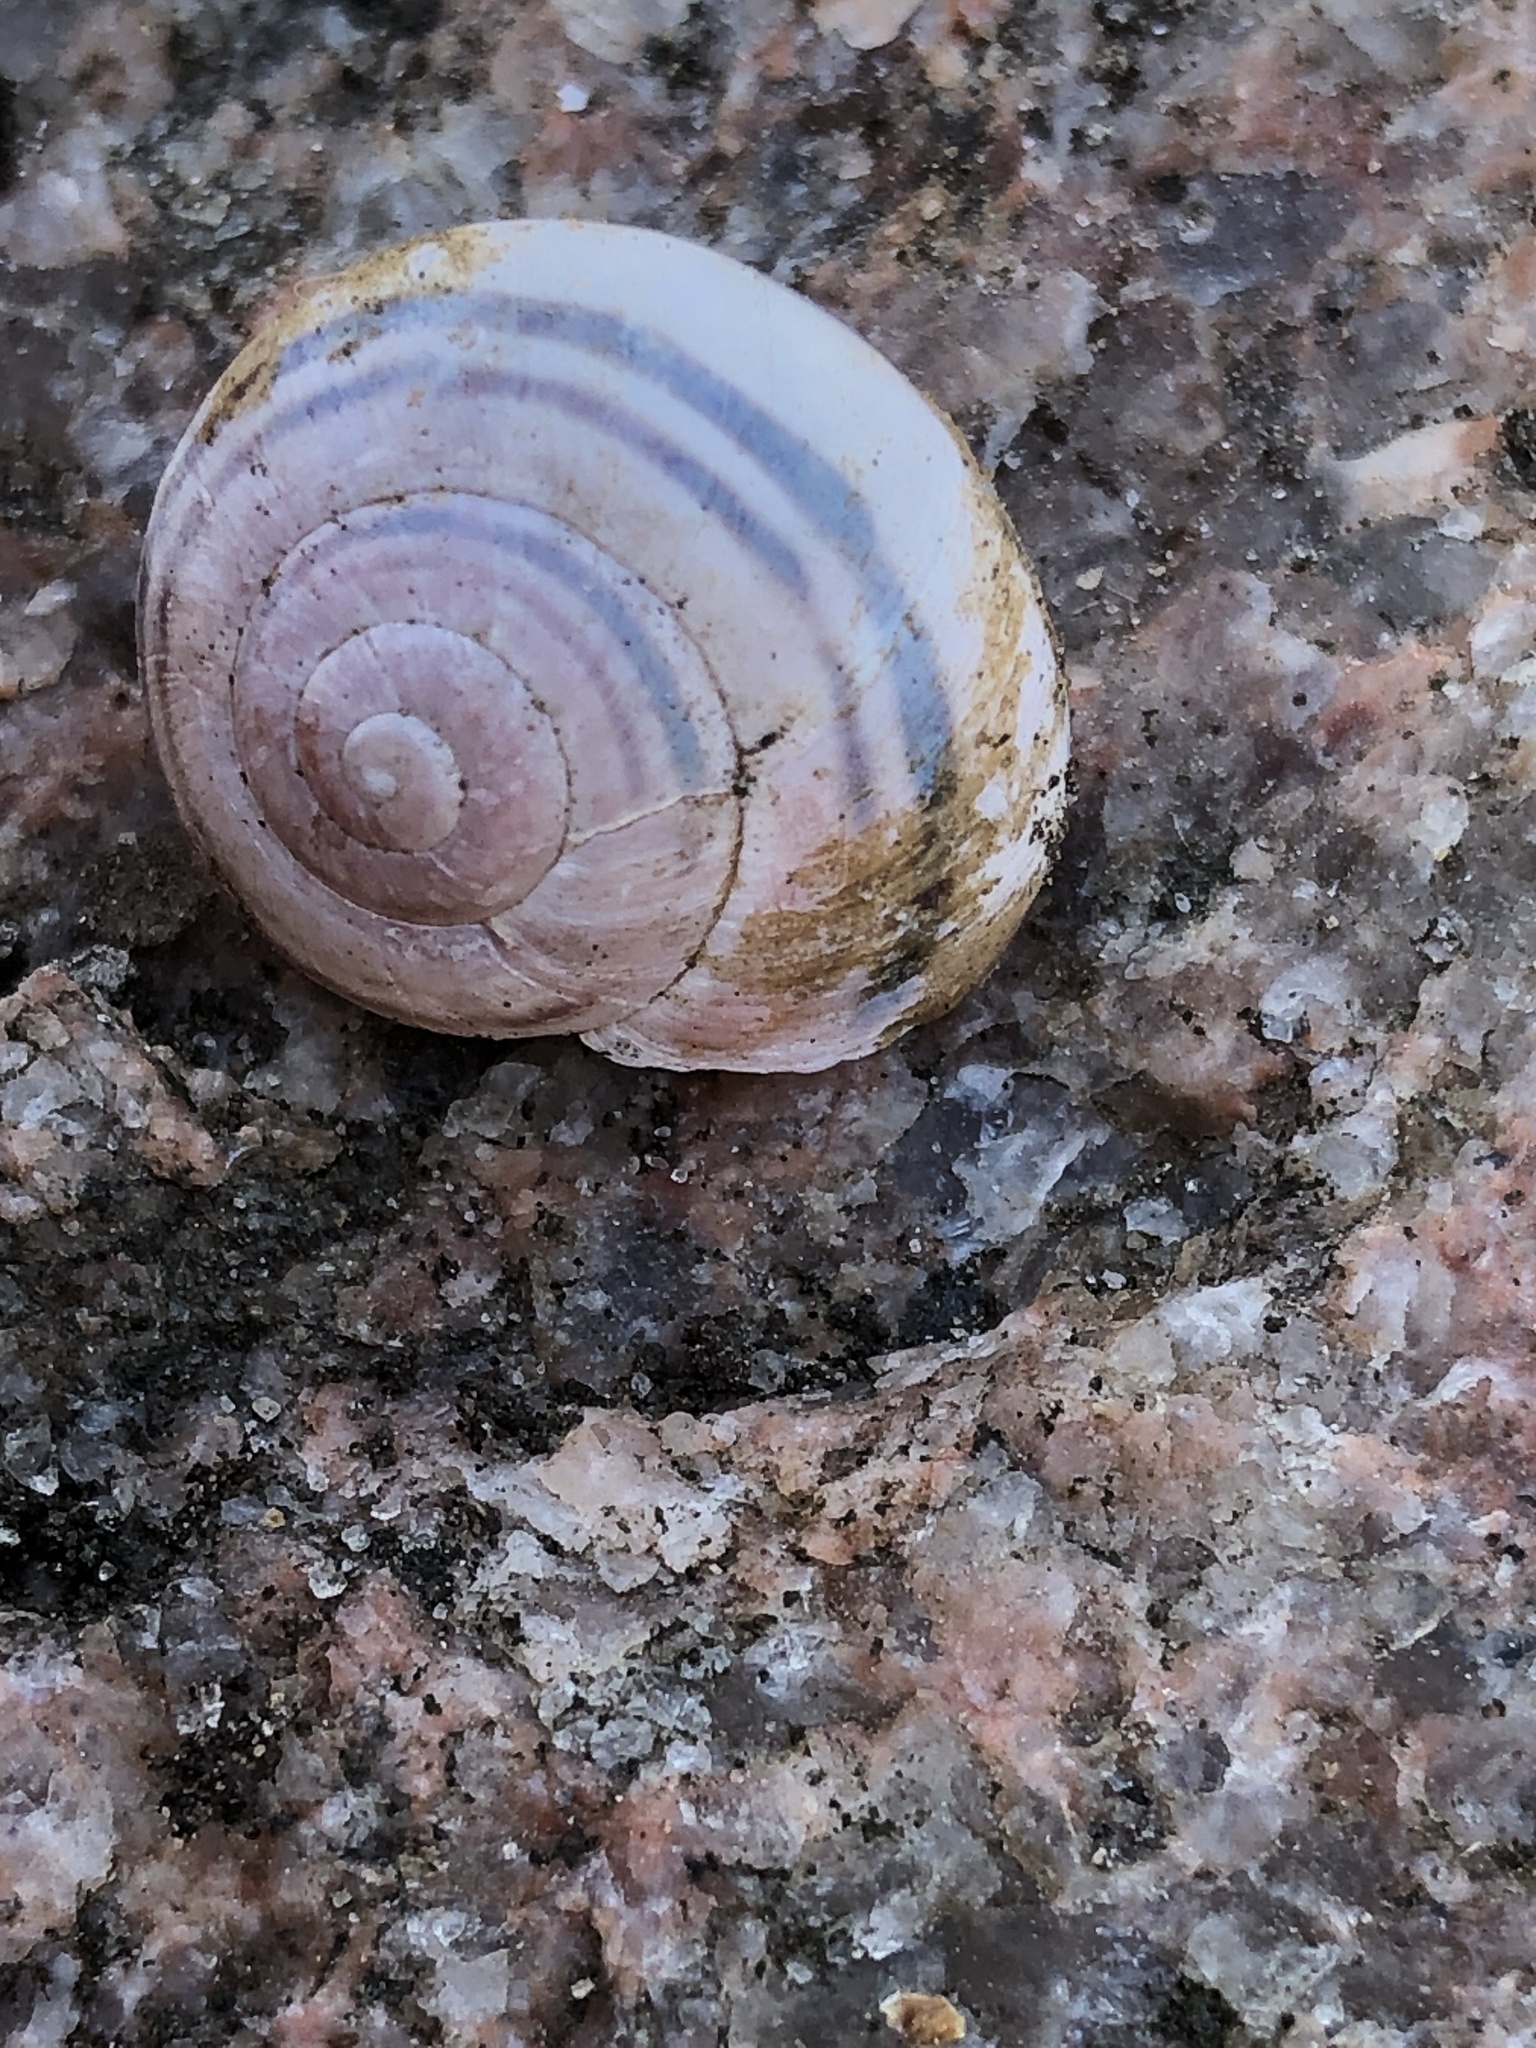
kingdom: Animalia
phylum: Mollusca
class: Gastropoda
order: Stylommatophora
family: Helicidae
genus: Cepaea
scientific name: Cepaea nemoralis
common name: Grovesnail
